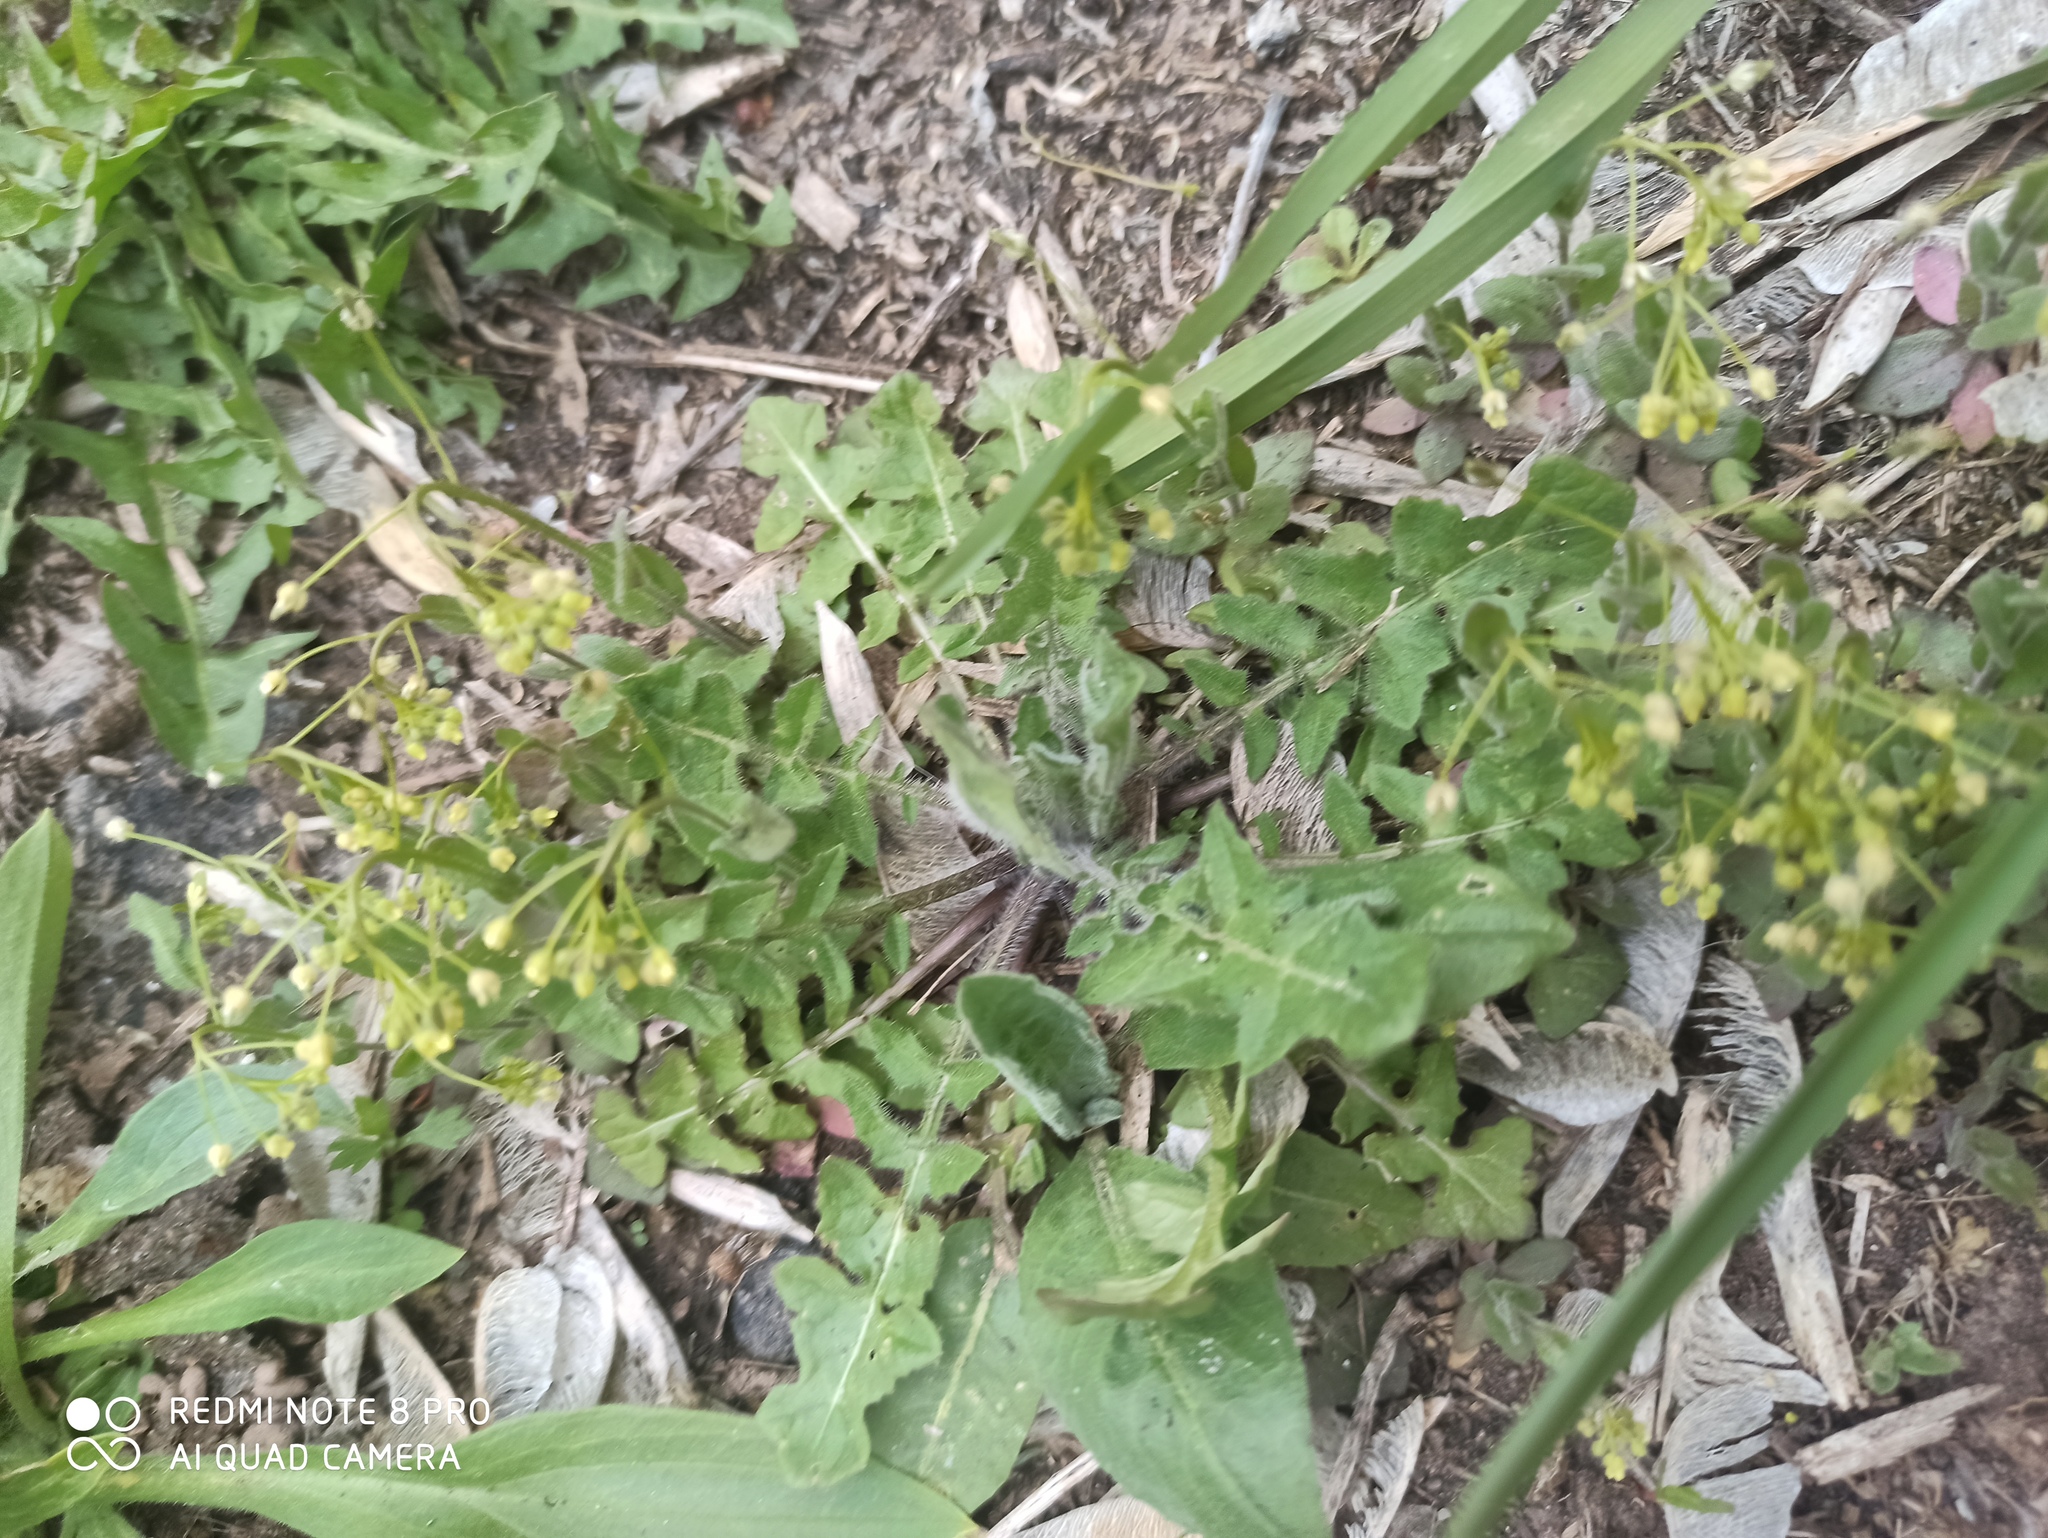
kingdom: Plantae
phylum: Tracheophyta
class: Magnoliopsida
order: Brassicales
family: Brassicaceae
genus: Draba
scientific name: Draba nemorosa
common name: Wood whitlow-grass
